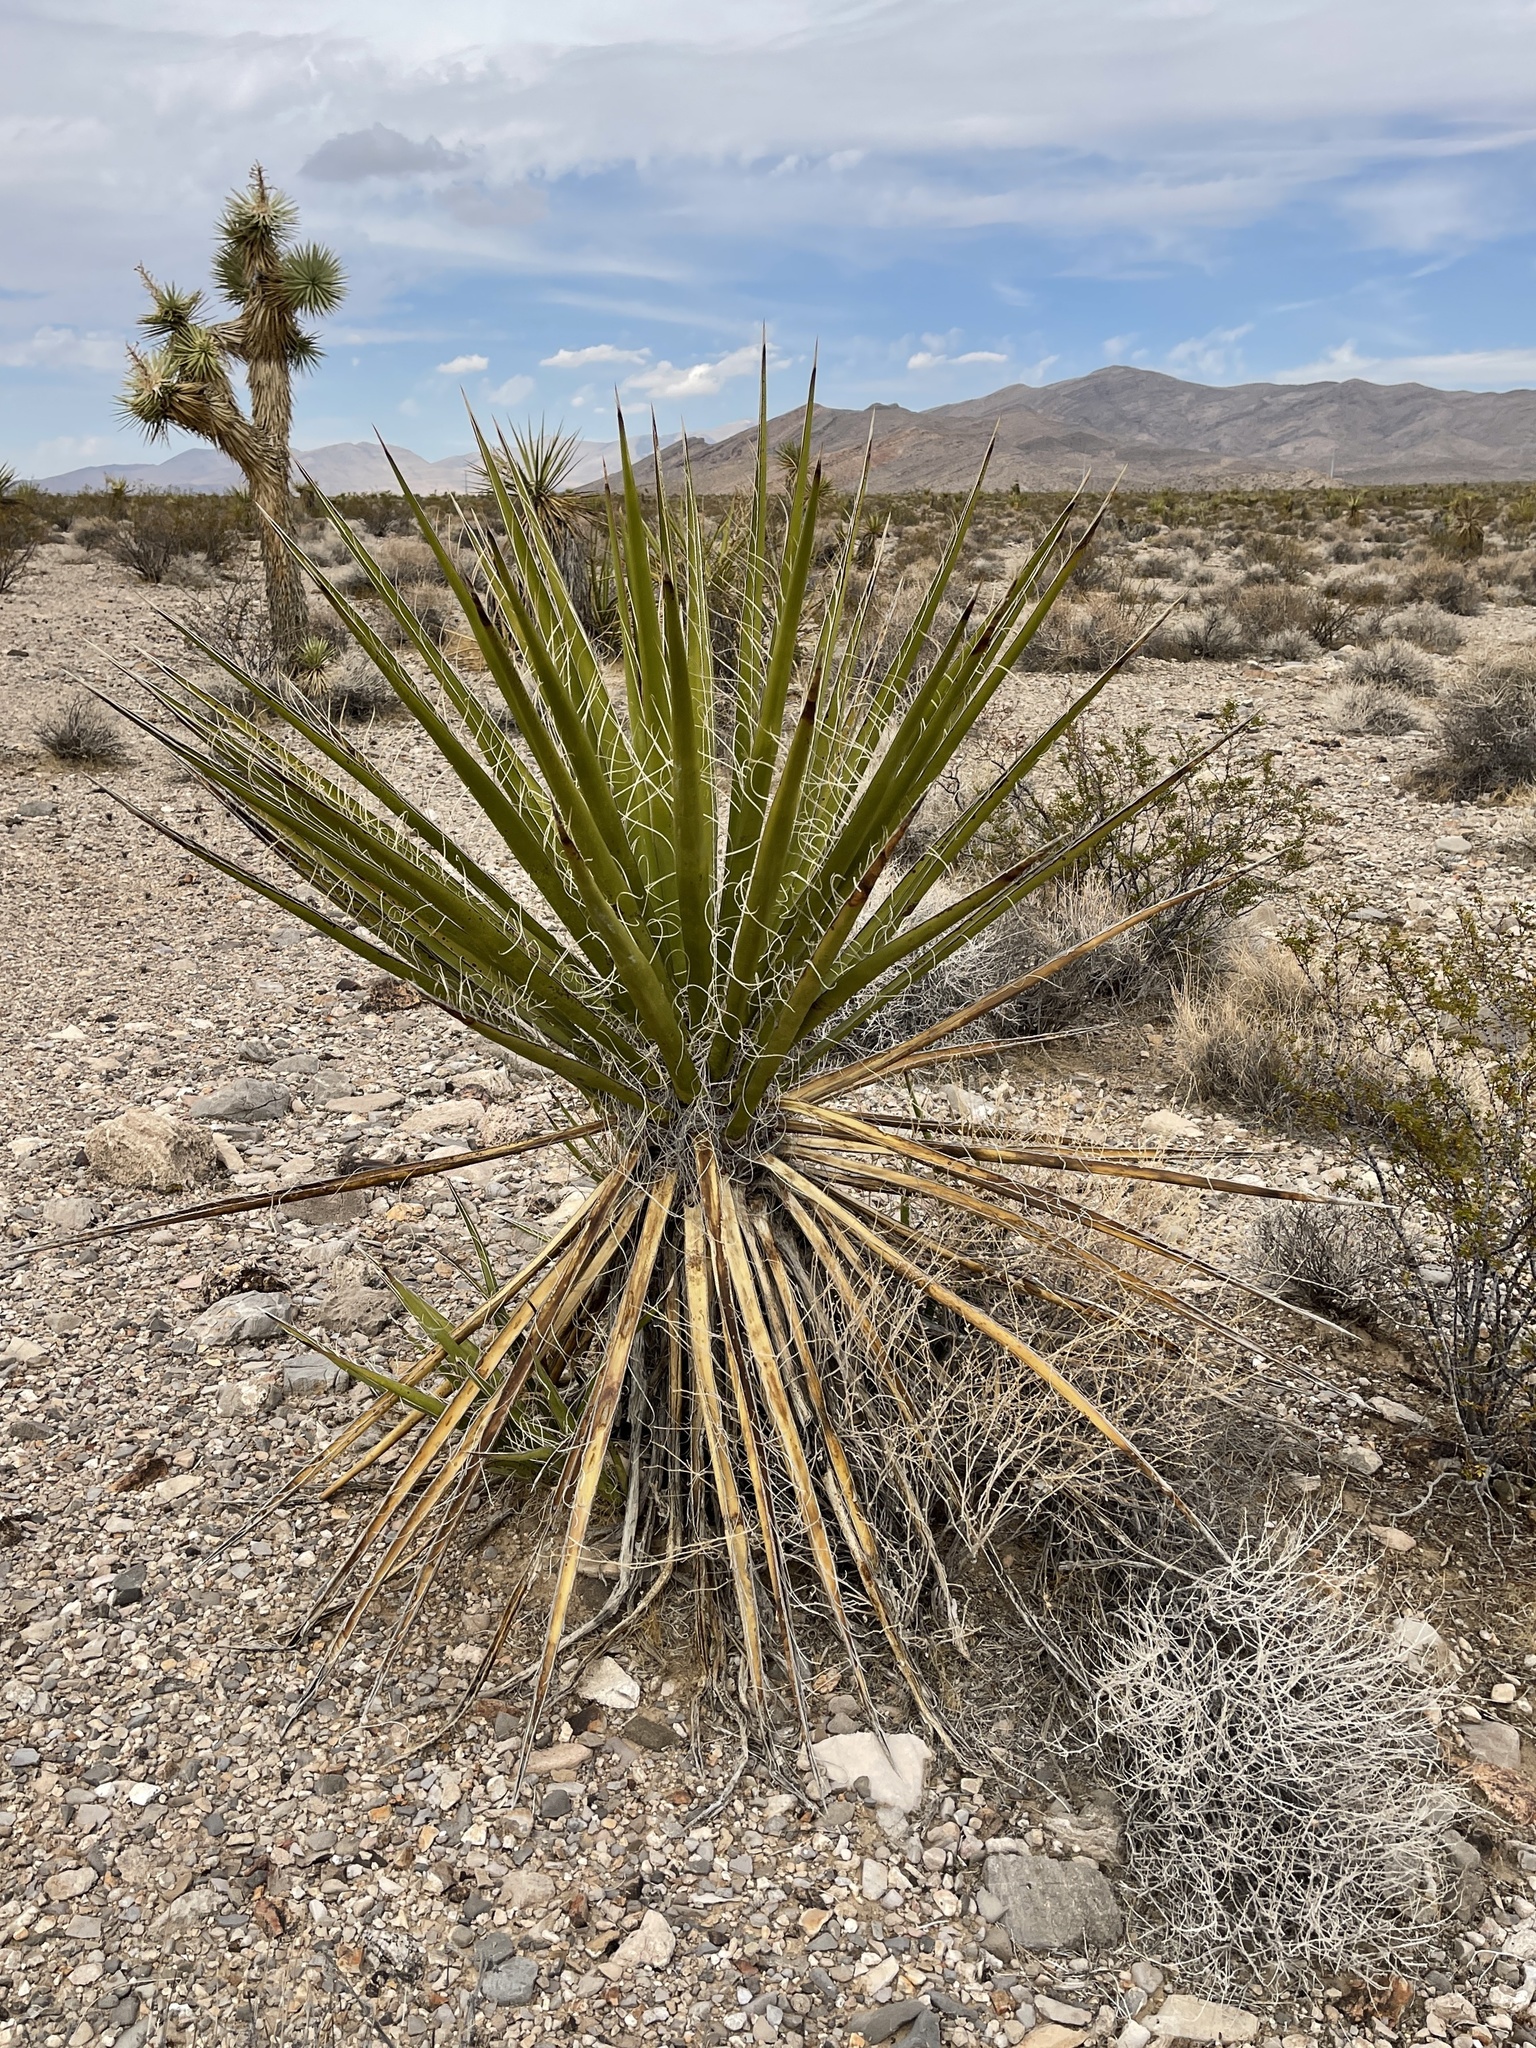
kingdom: Plantae
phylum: Tracheophyta
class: Liliopsida
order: Asparagales
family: Asparagaceae
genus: Yucca
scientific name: Yucca schidigera
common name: Mojave yucca
